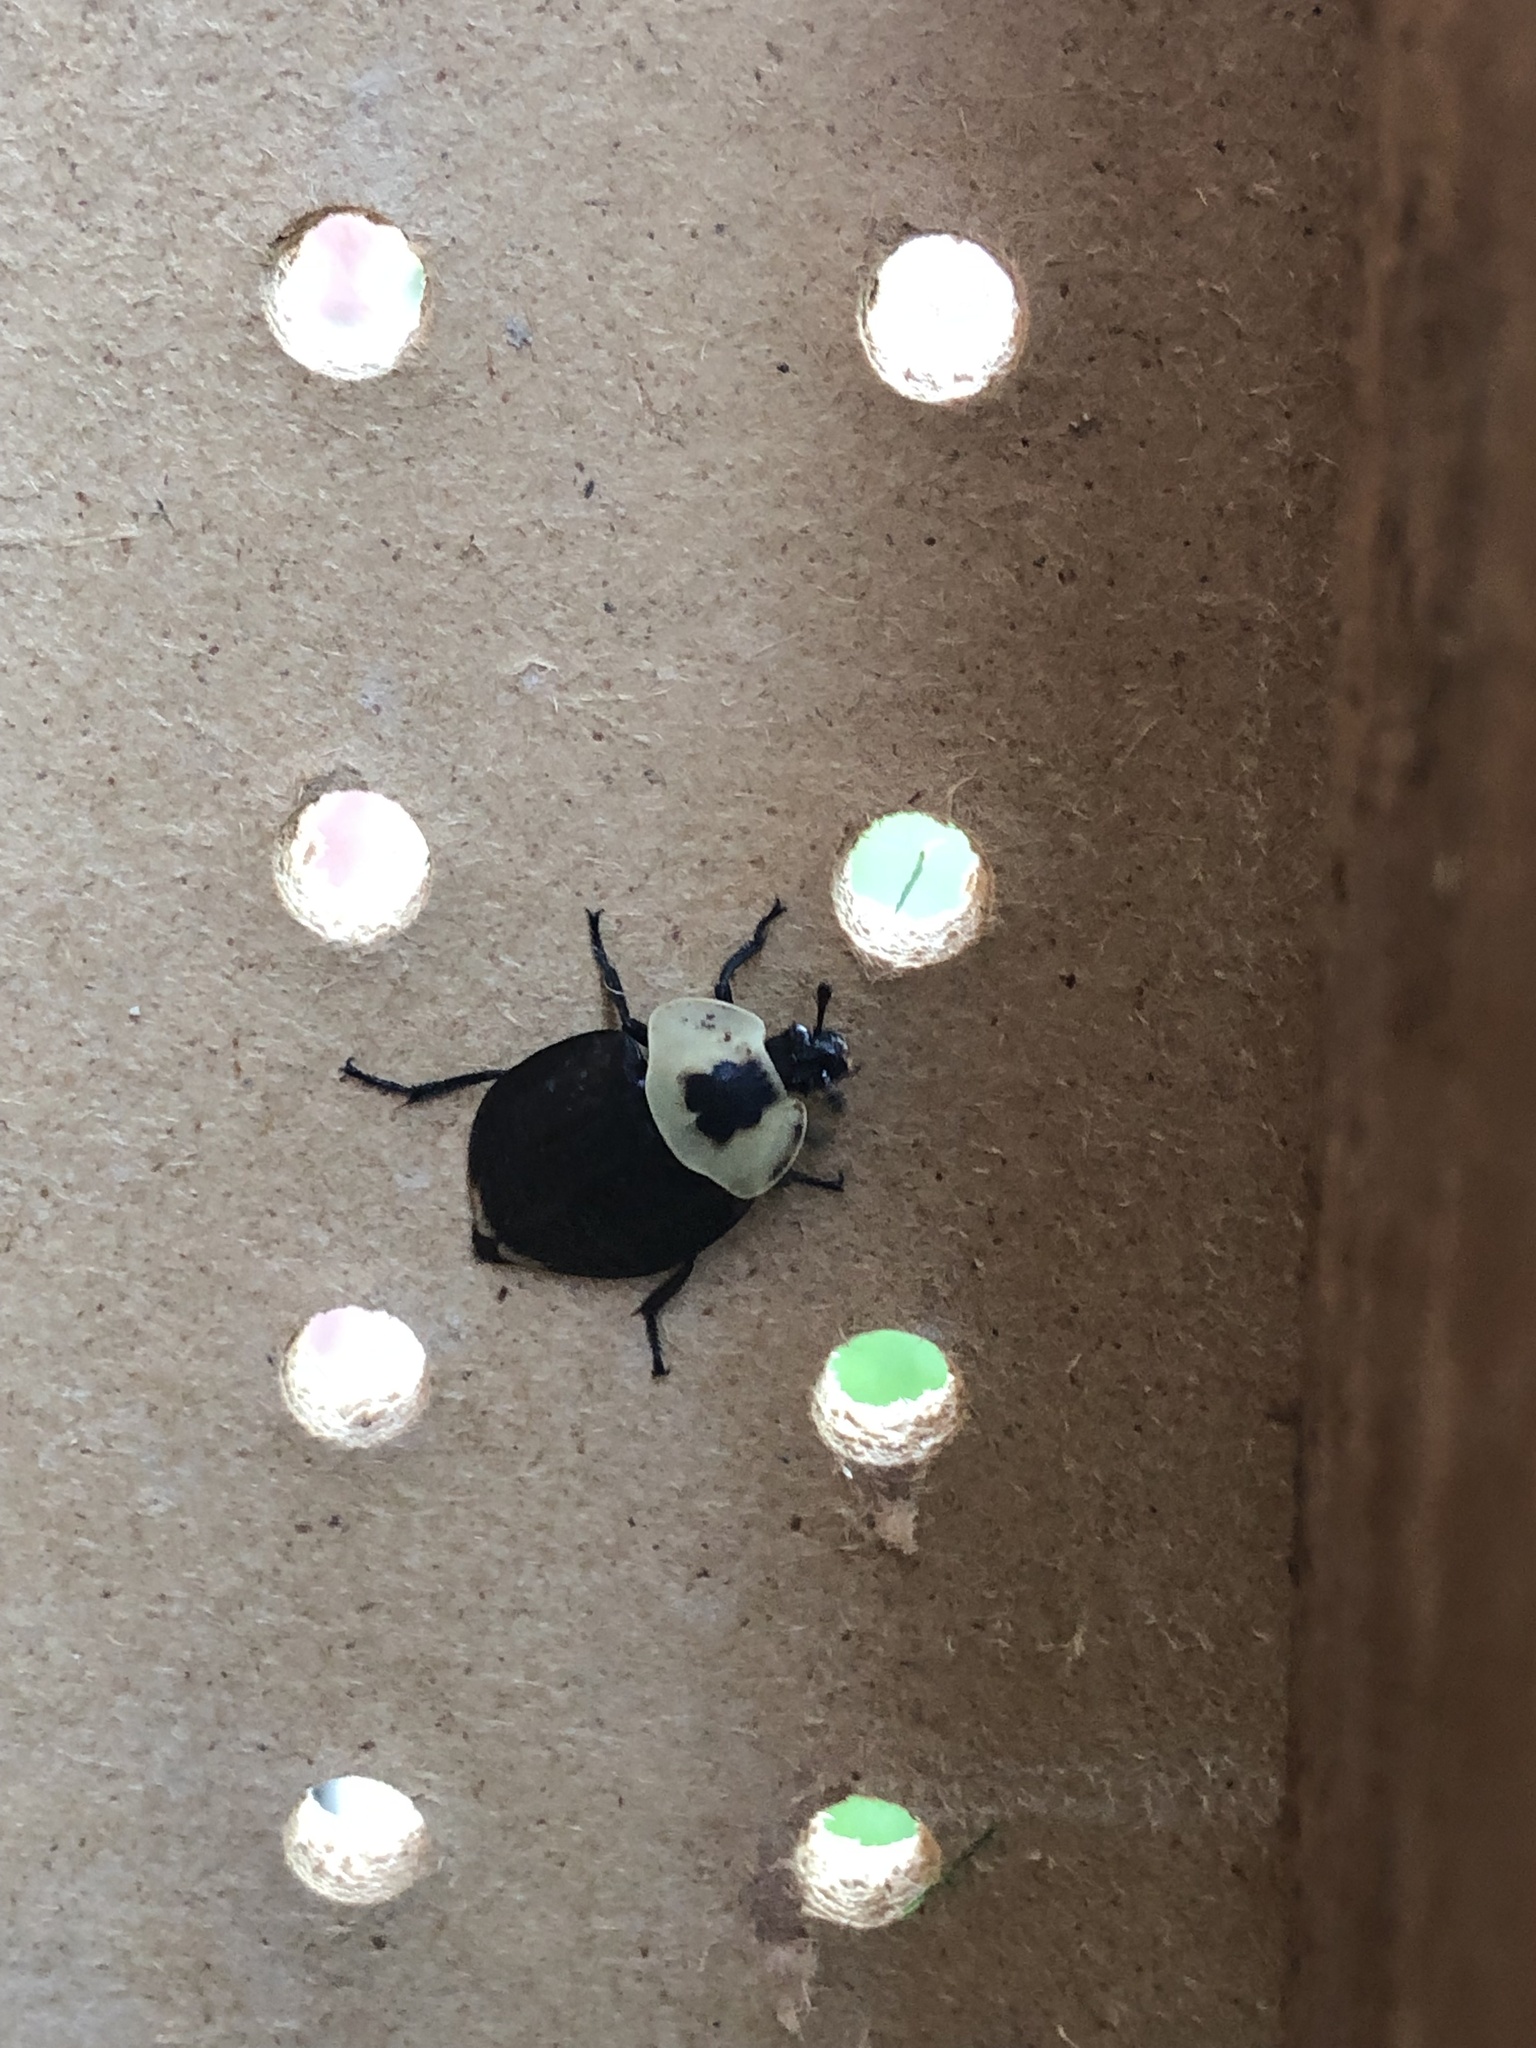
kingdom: Animalia
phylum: Arthropoda
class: Insecta
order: Coleoptera
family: Staphylinidae
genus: Necrophila
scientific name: Necrophila americana
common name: American carrion beetle
